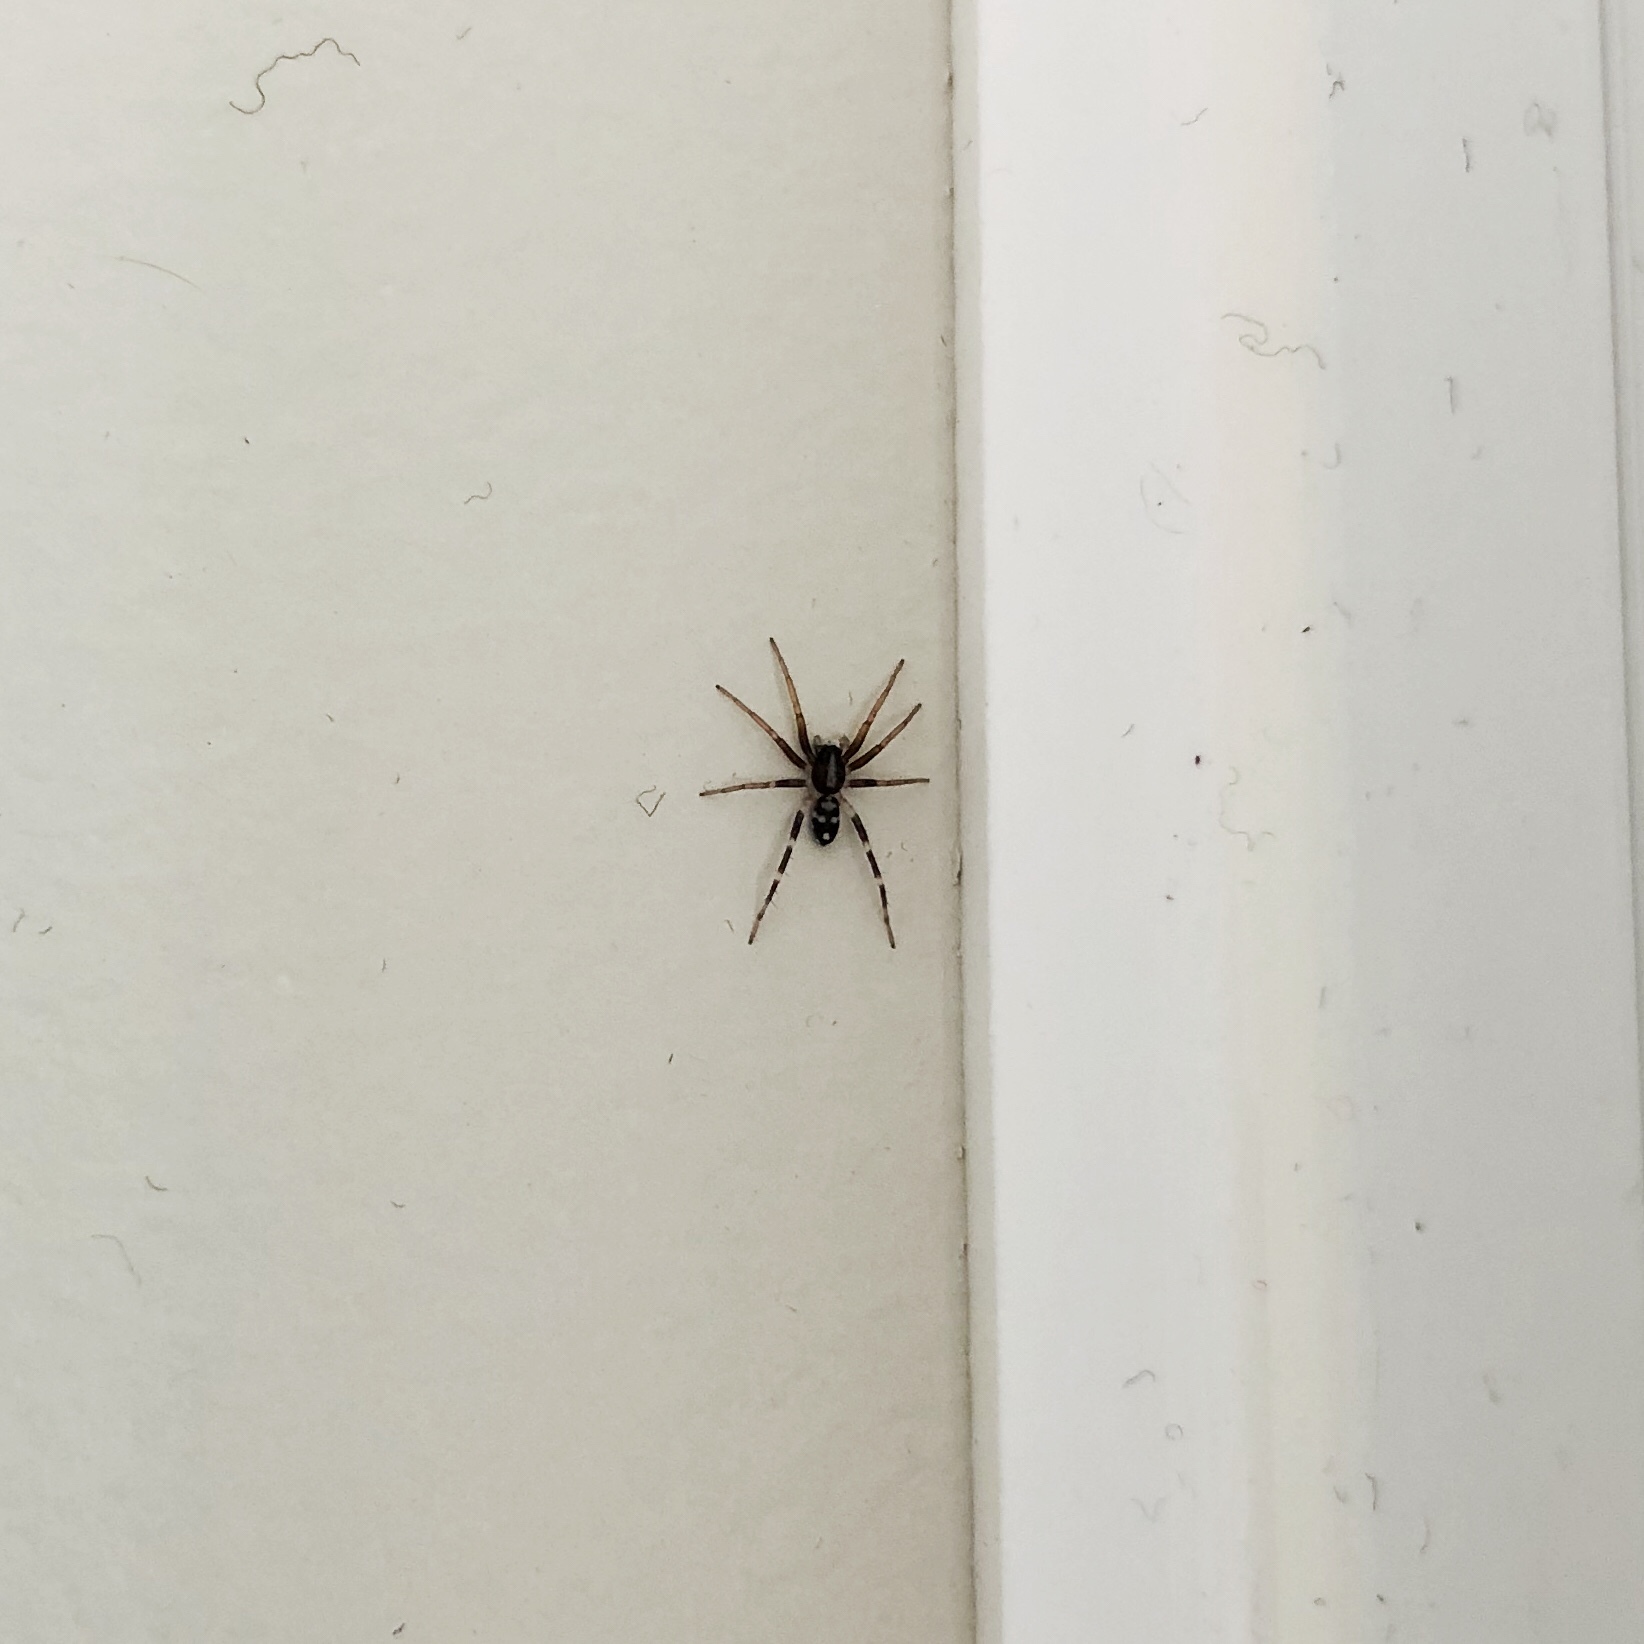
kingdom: Animalia
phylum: Arthropoda
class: Arachnida
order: Araneae
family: Corinnidae
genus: Nyssus
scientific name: Nyssus coloripes
